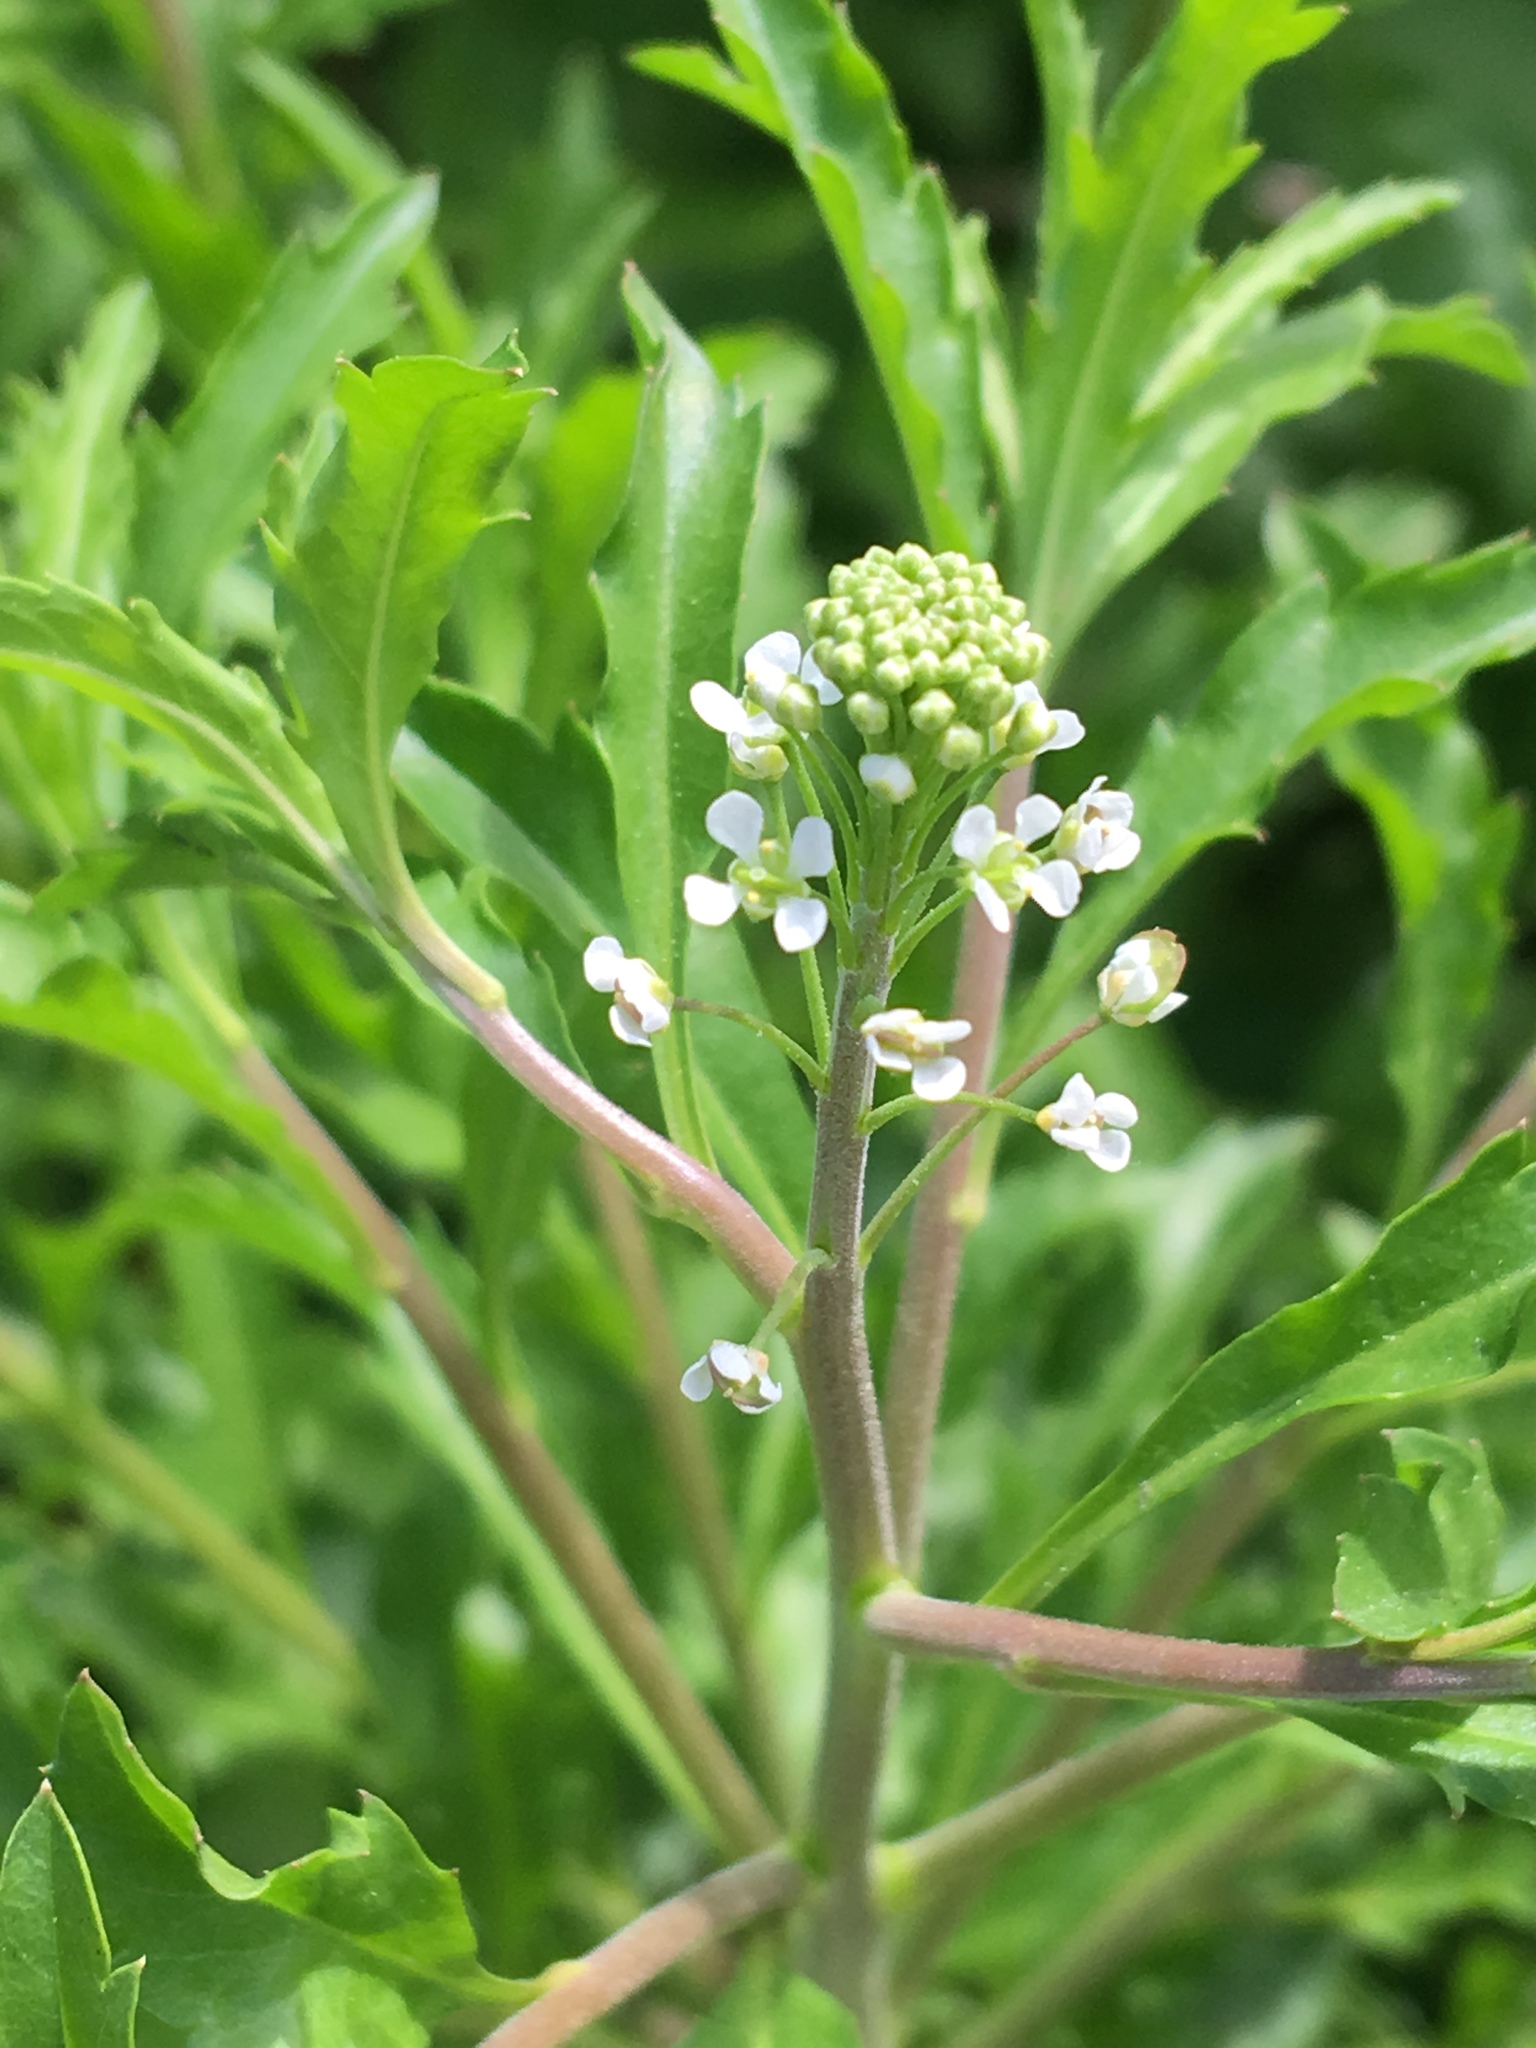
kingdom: Plantae
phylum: Tracheophyta
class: Magnoliopsida
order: Brassicales
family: Brassicaceae
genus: Lepidium
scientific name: Lepidium virginicum
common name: Least pepperwort
